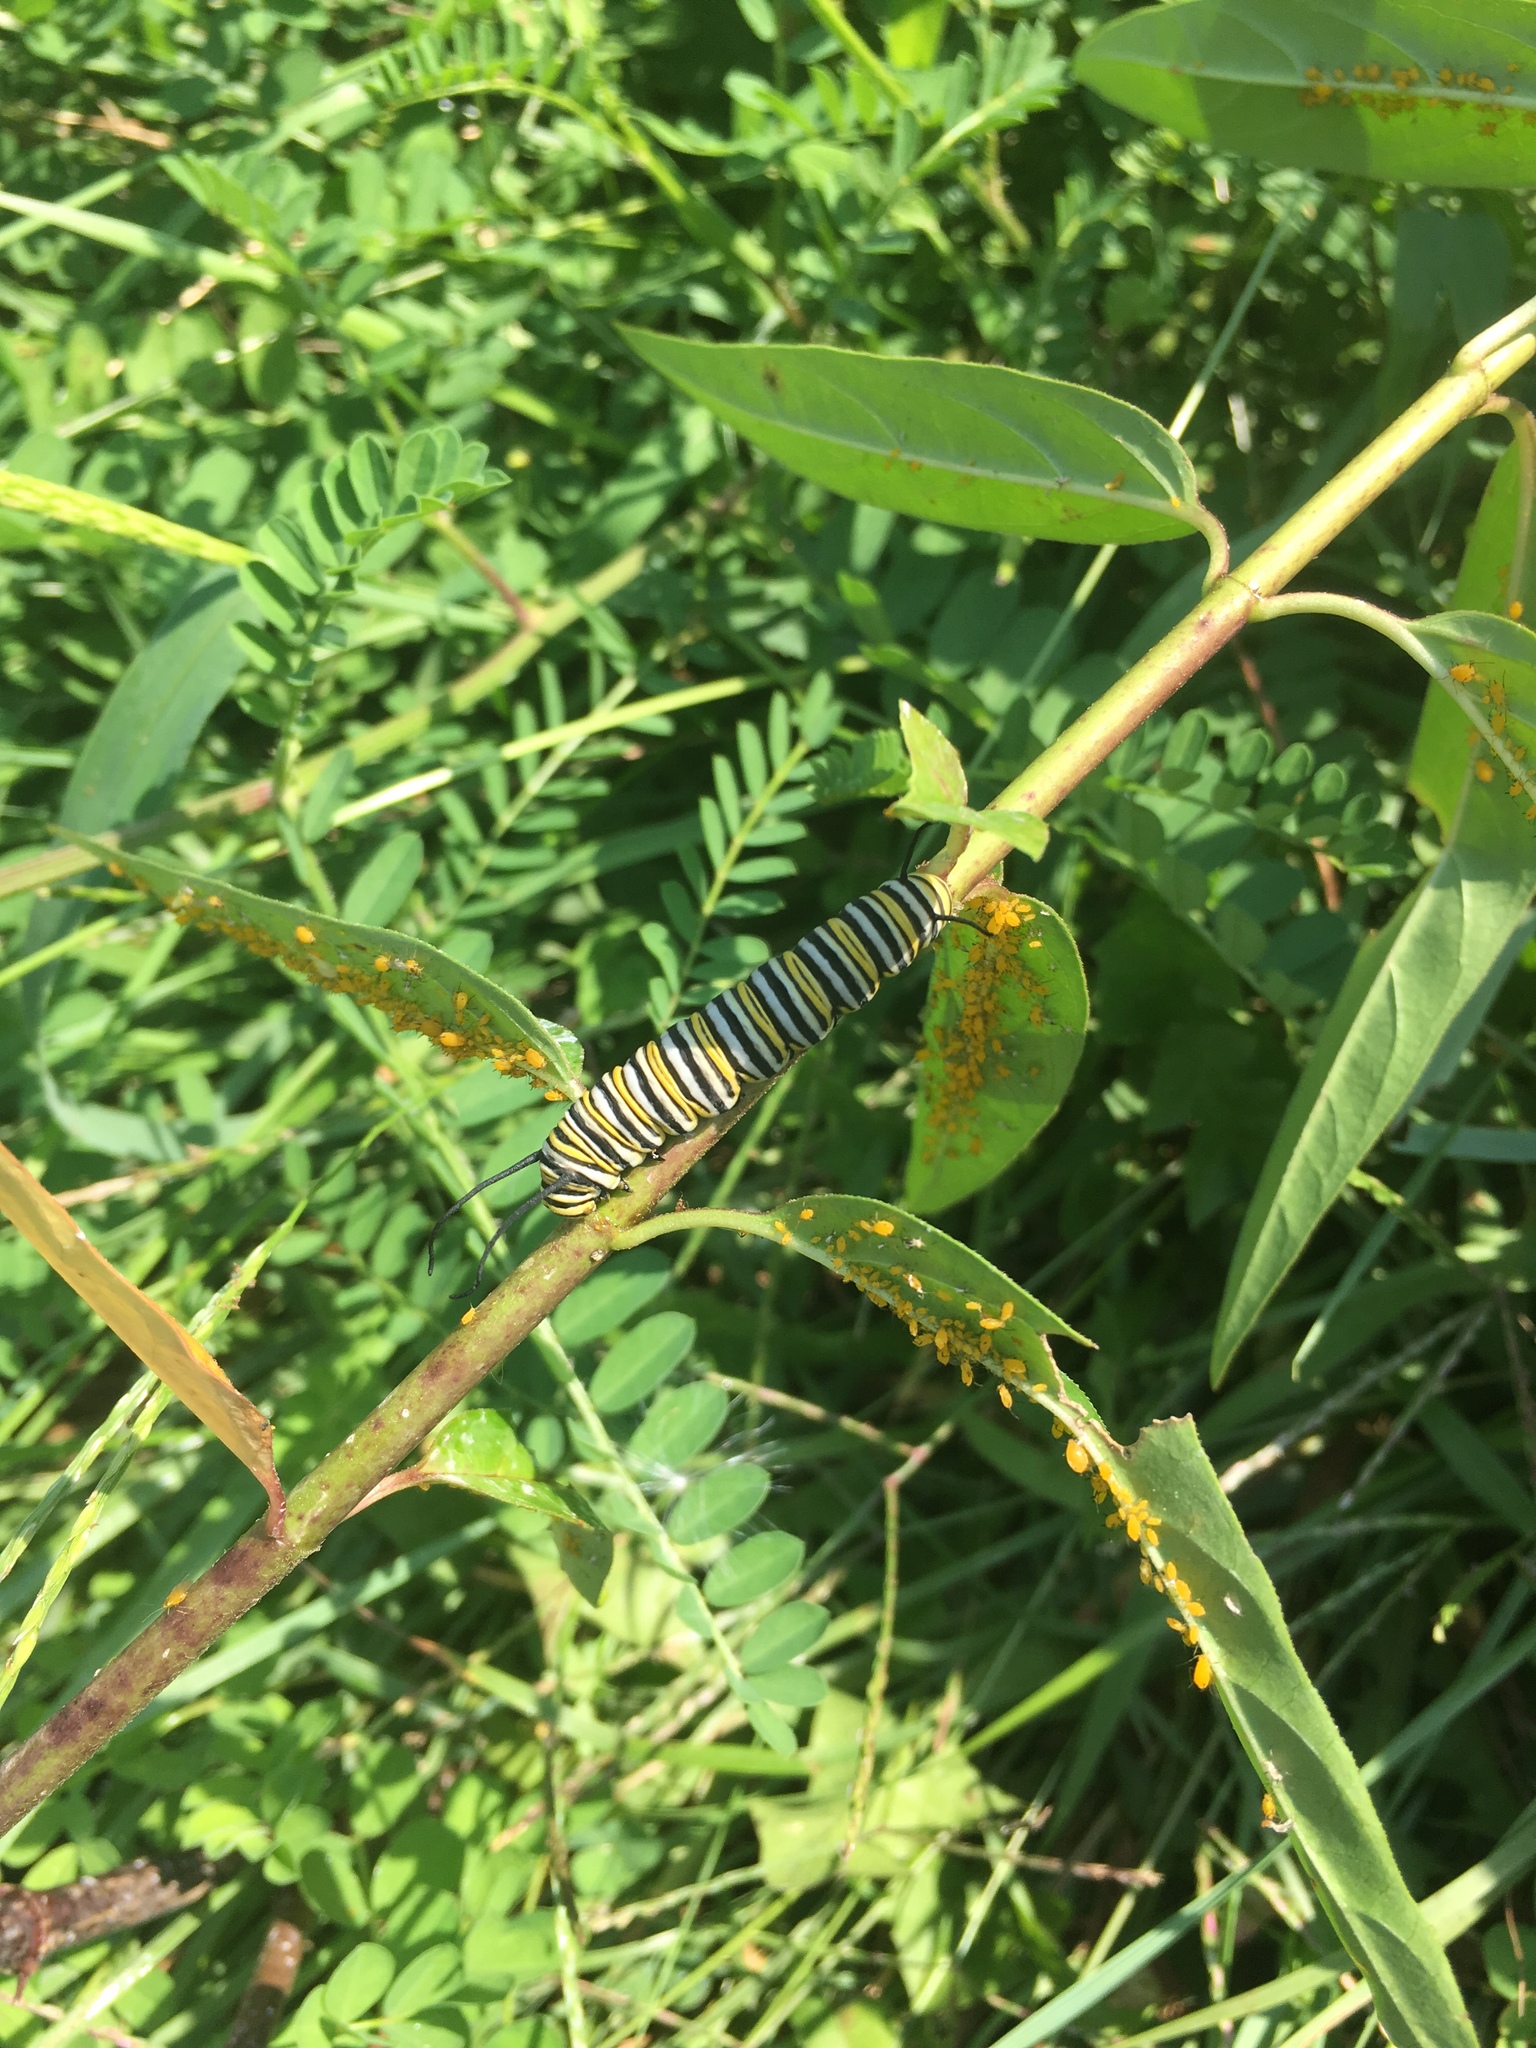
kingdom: Animalia
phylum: Arthropoda
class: Insecta
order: Lepidoptera
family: Nymphalidae
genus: Danaus
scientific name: Danaus plexippus
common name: Monarch
